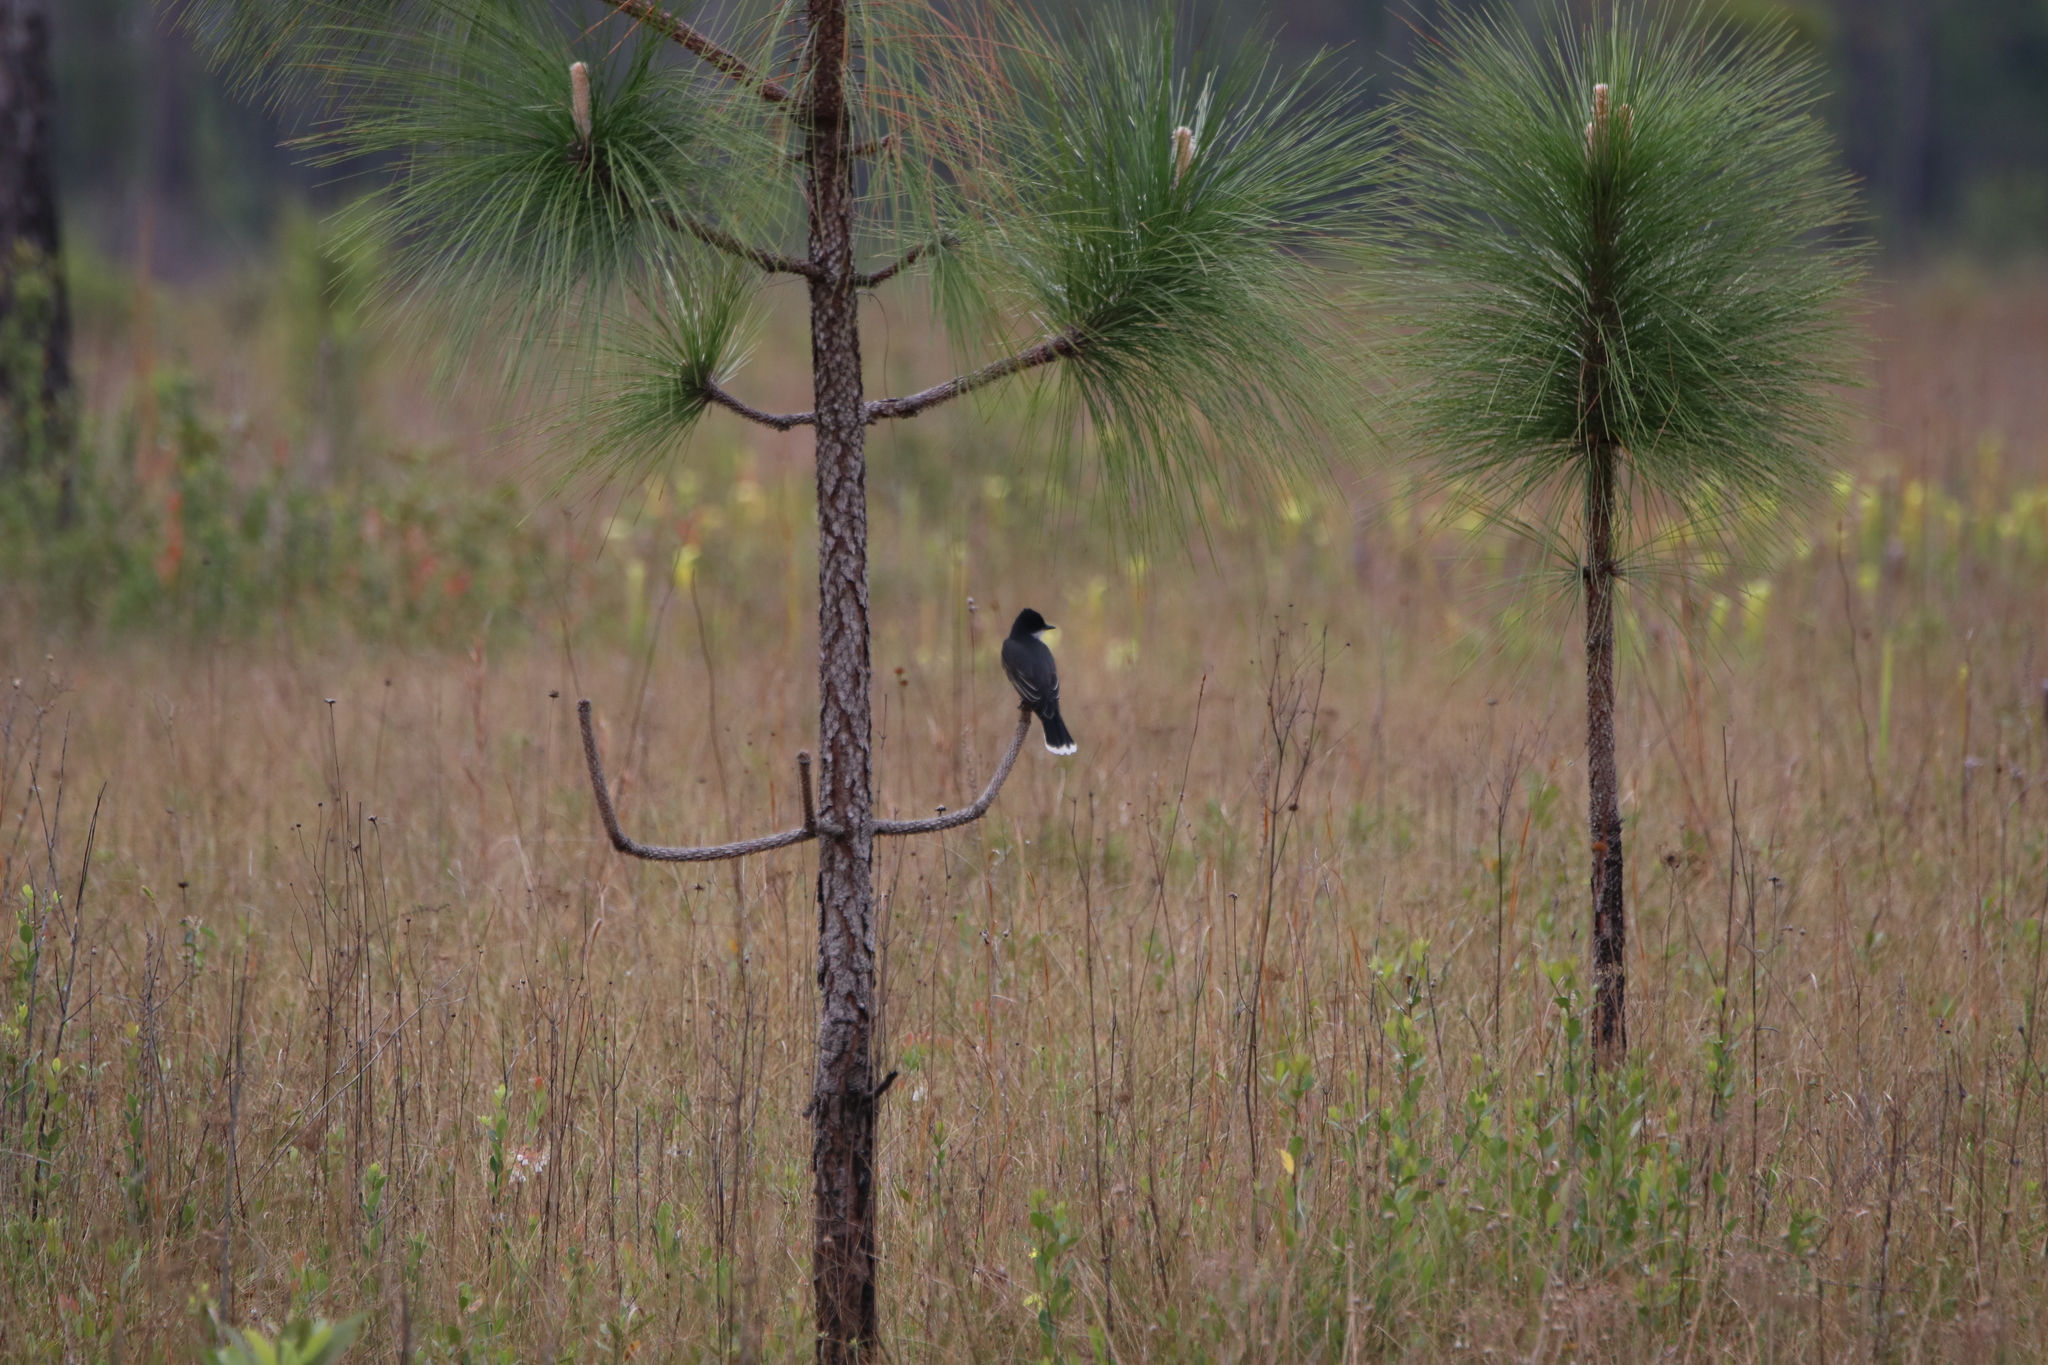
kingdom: Animalia
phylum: Chordata
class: Aves
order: Passeriformes
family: Tyrannidae
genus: Tyrannus
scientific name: Tyrannus tyrannus
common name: Eastern kingbird
